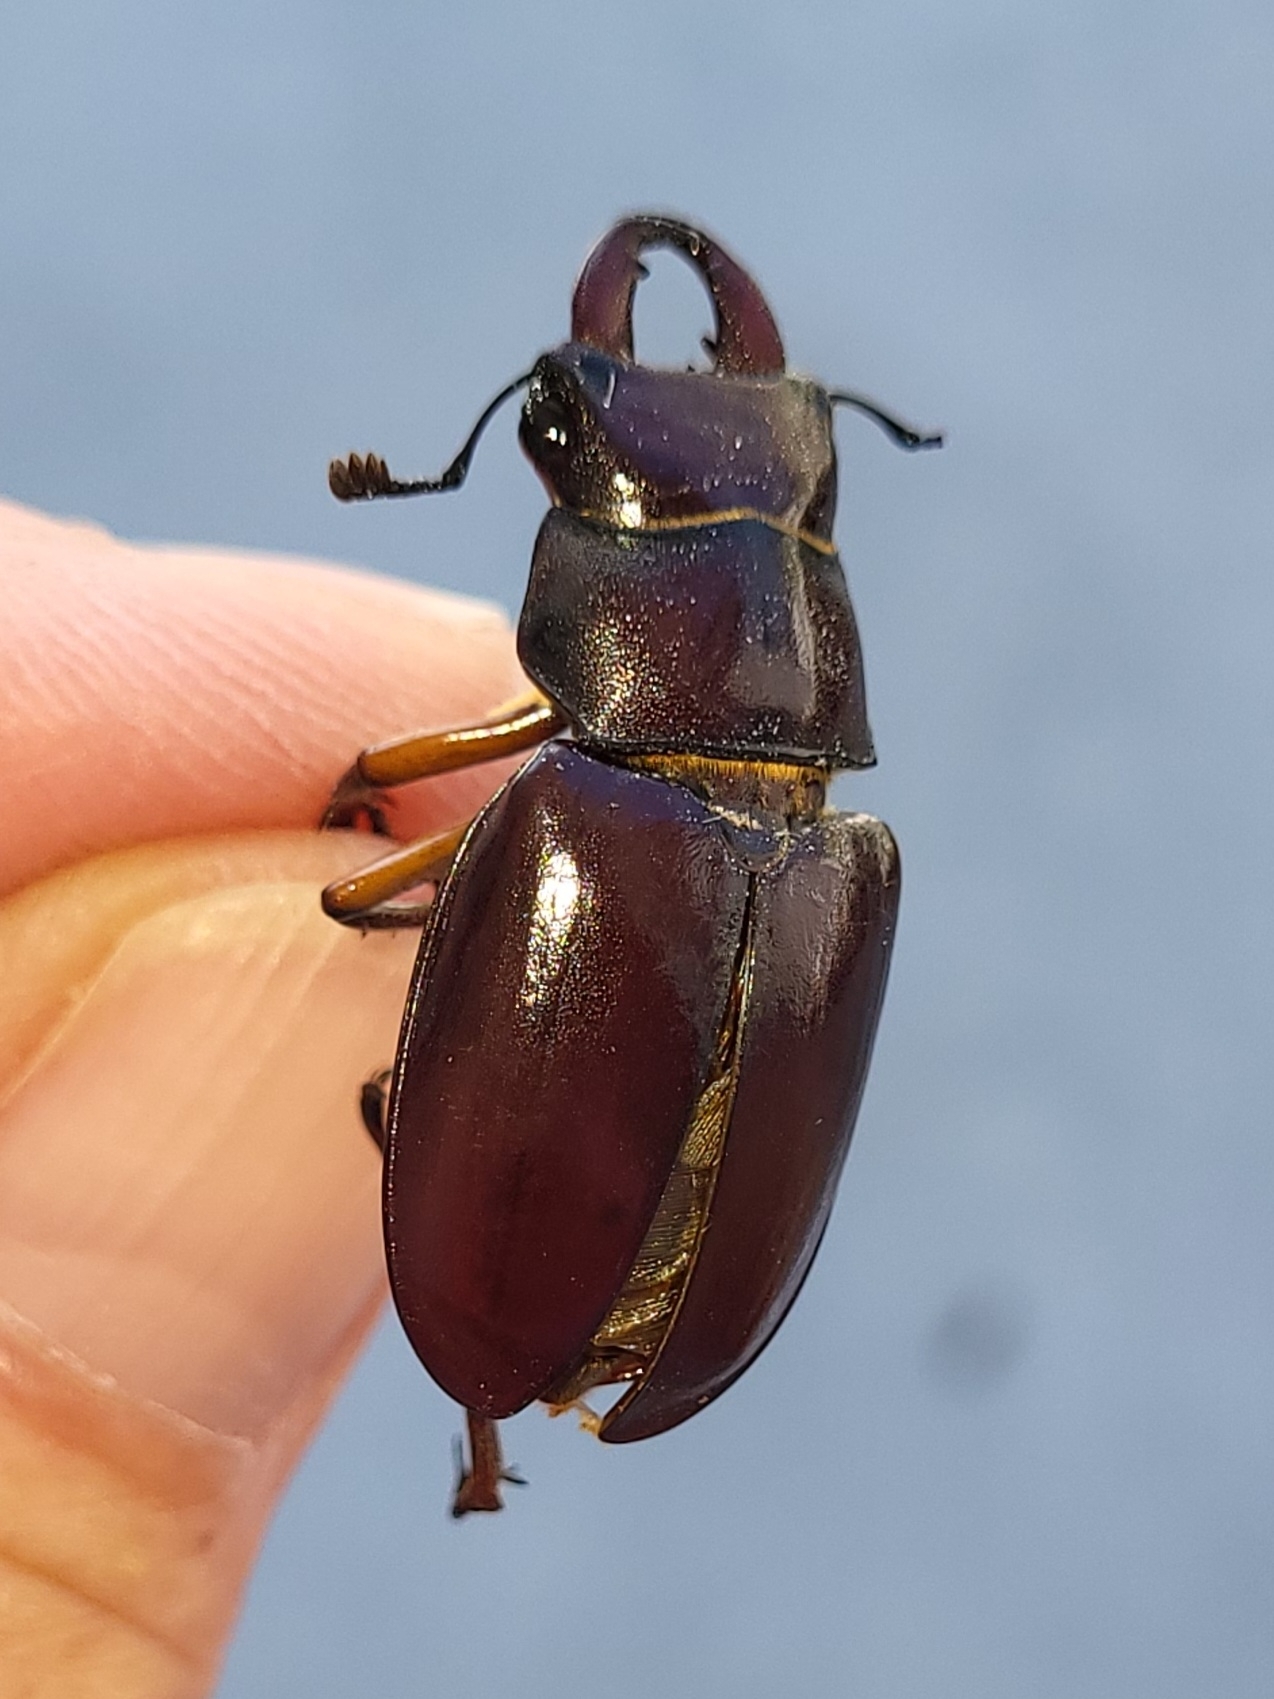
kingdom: Animalia
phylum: Arthropoda
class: Insecta
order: Coleoptera
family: Lucanidae
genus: Lucanus
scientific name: Lucanus capreolus
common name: Stag beetle
